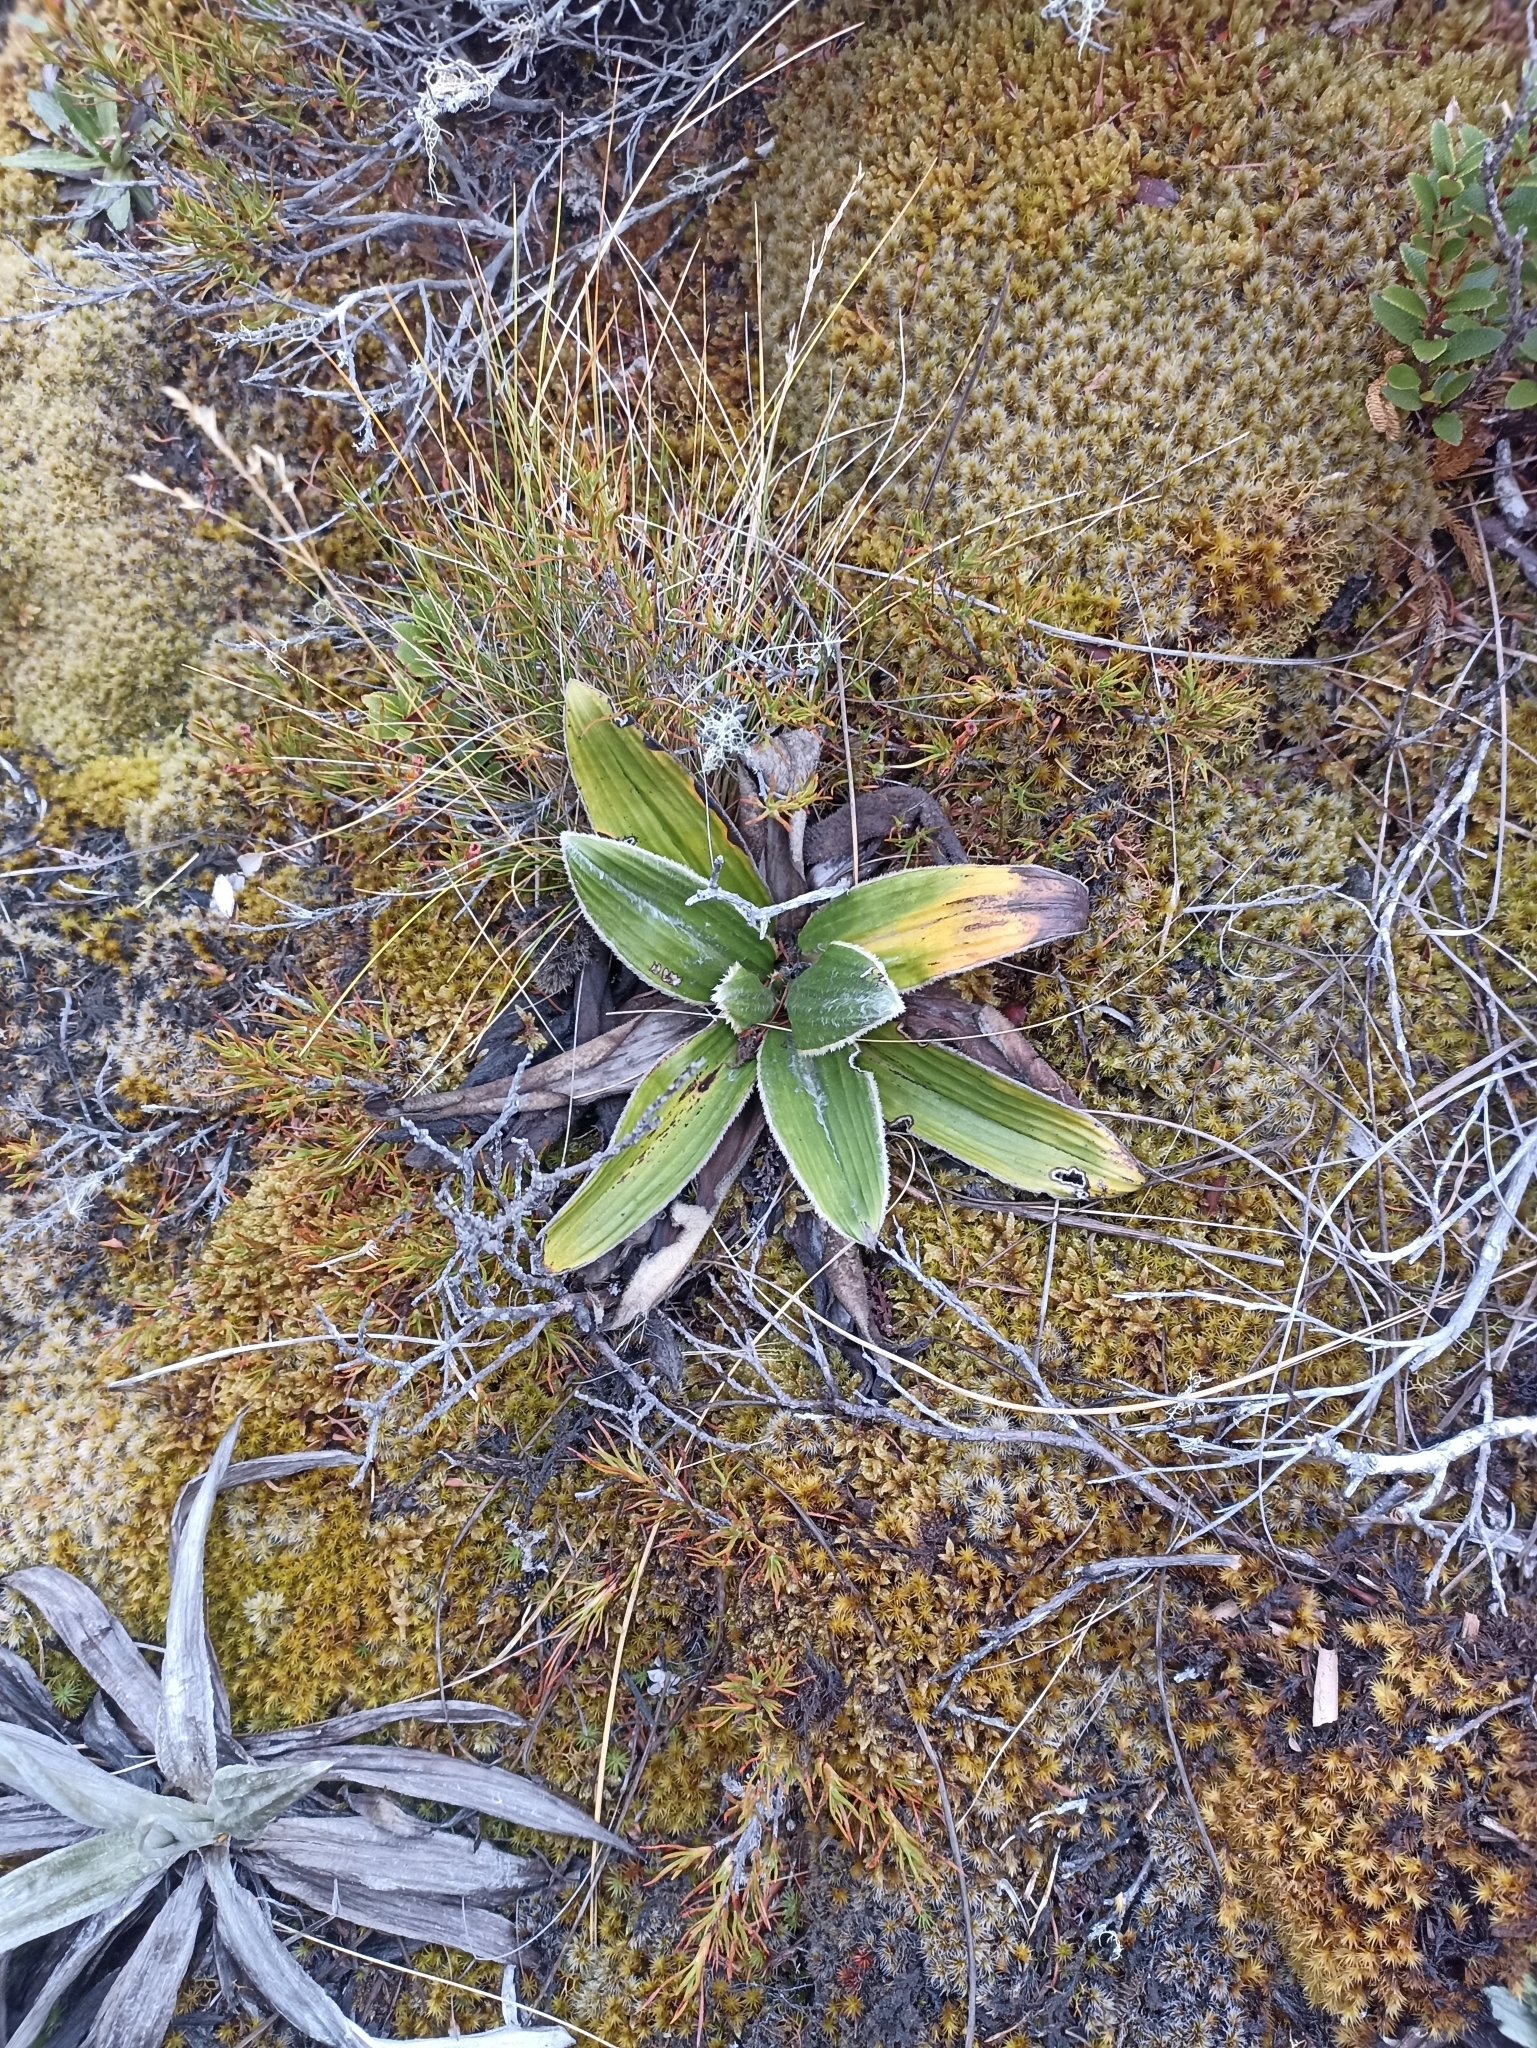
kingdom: Plantae
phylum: Tracheophyta
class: Magnoliopsida
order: Asterales
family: Asteraceae
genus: Celmisia
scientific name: Celmisia verbascifolia
